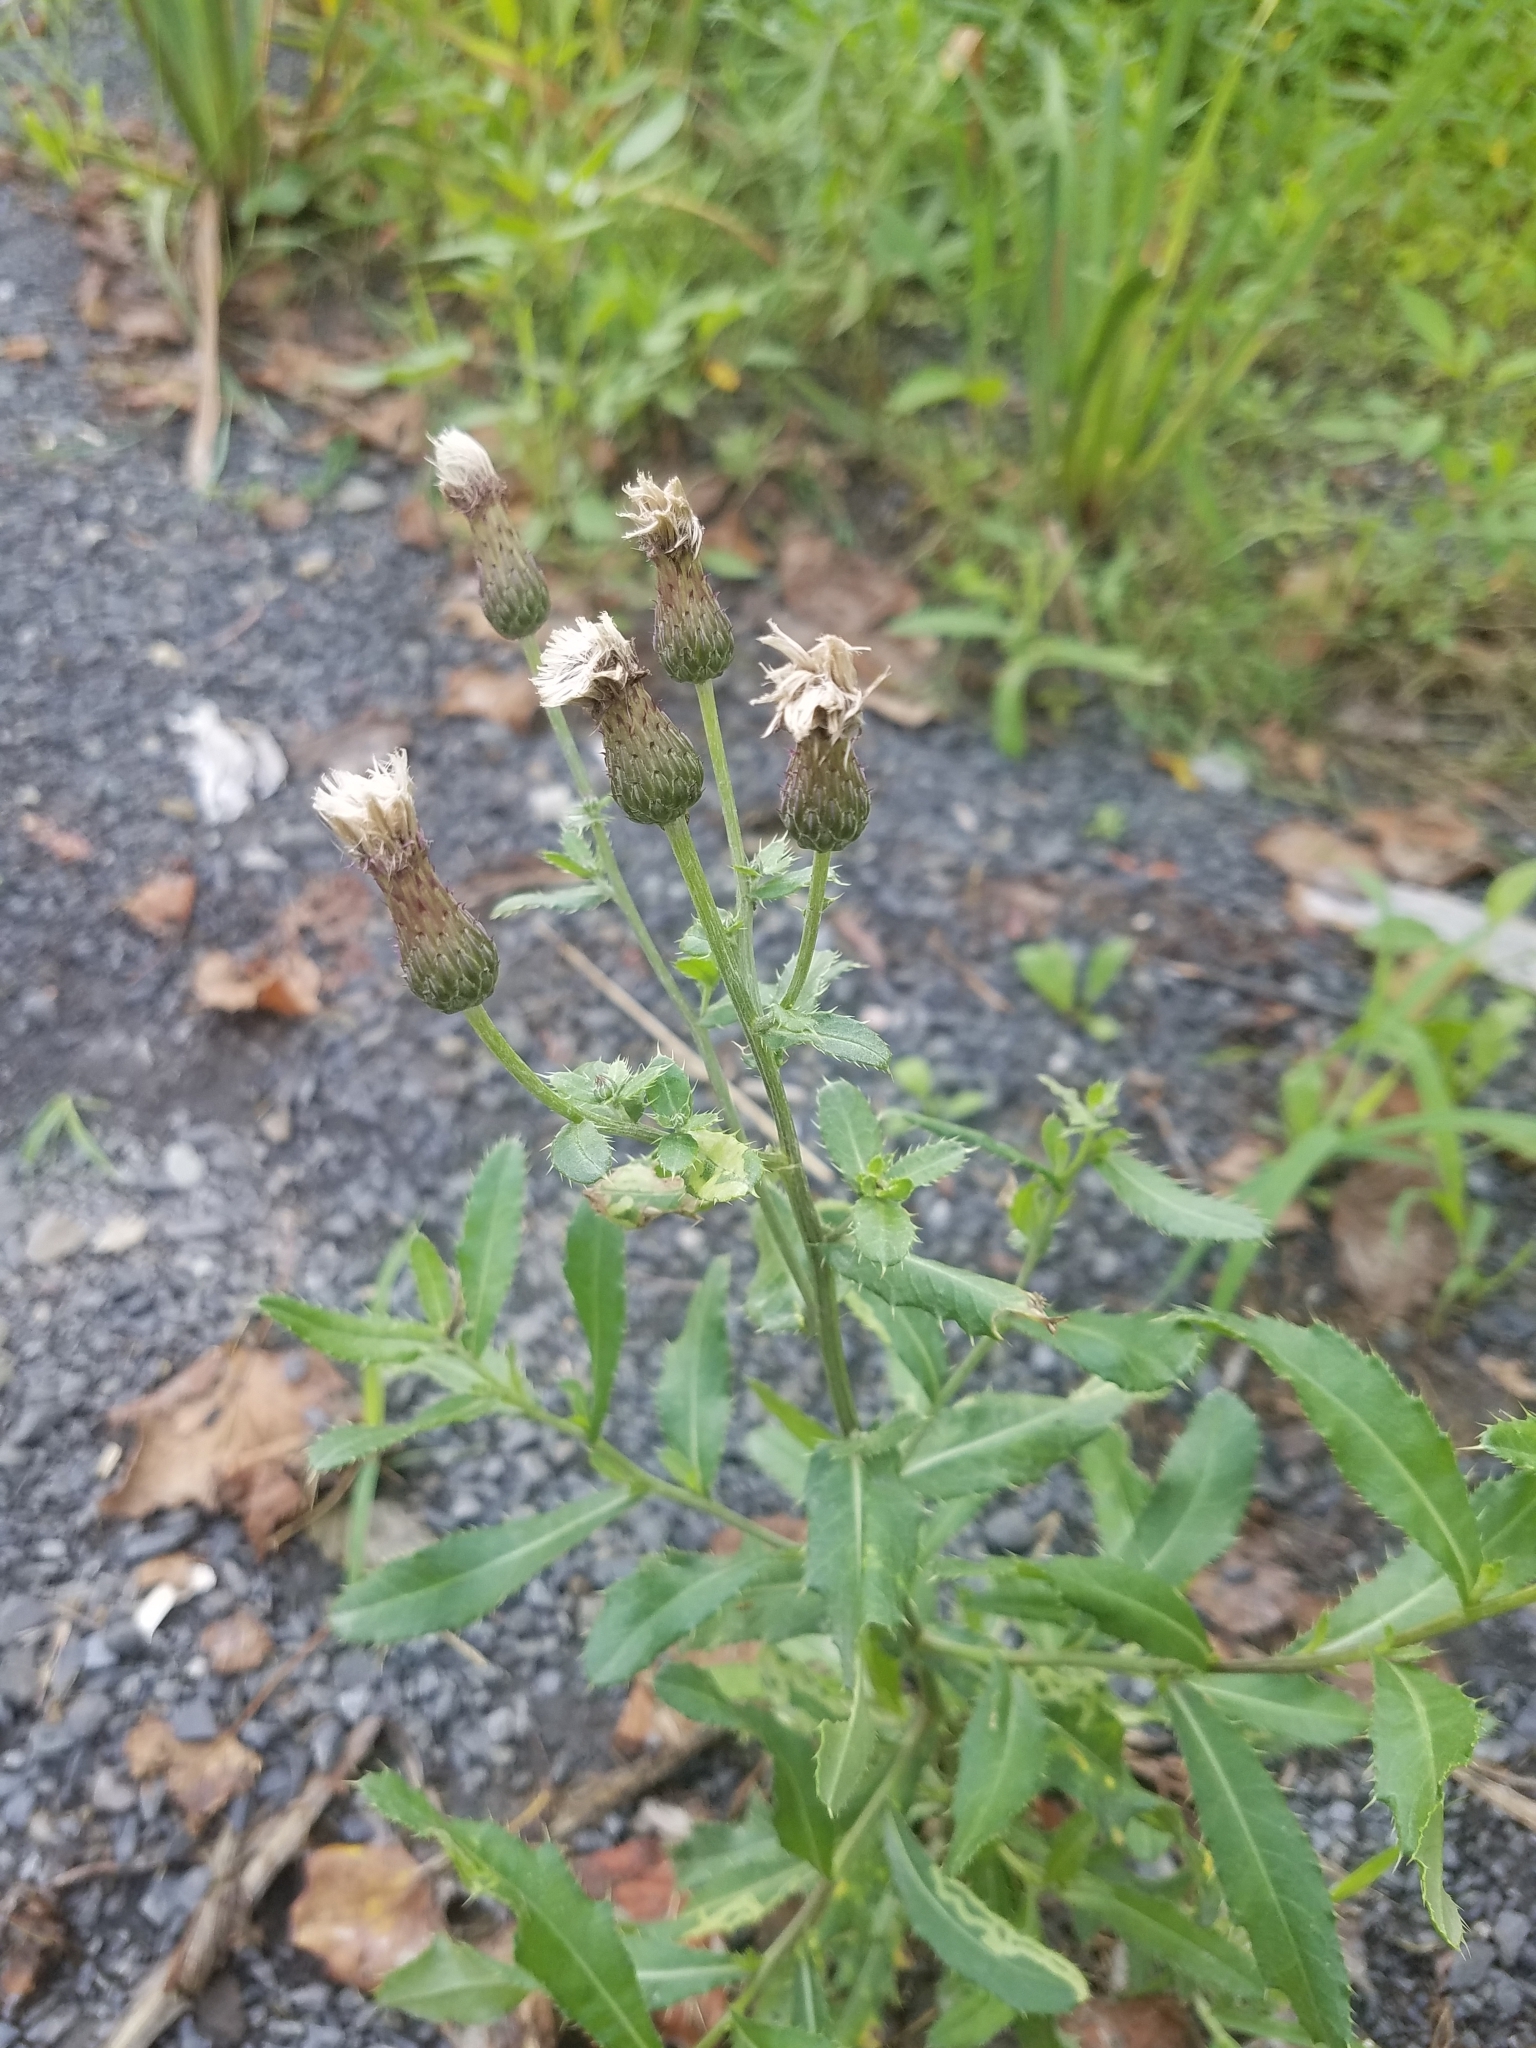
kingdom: Plantae
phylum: Tracheophyta
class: Magnoliopsida
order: Asterales
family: Asteraceae
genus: Cirsium
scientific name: Cirsium arvense
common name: Creeping thistle
